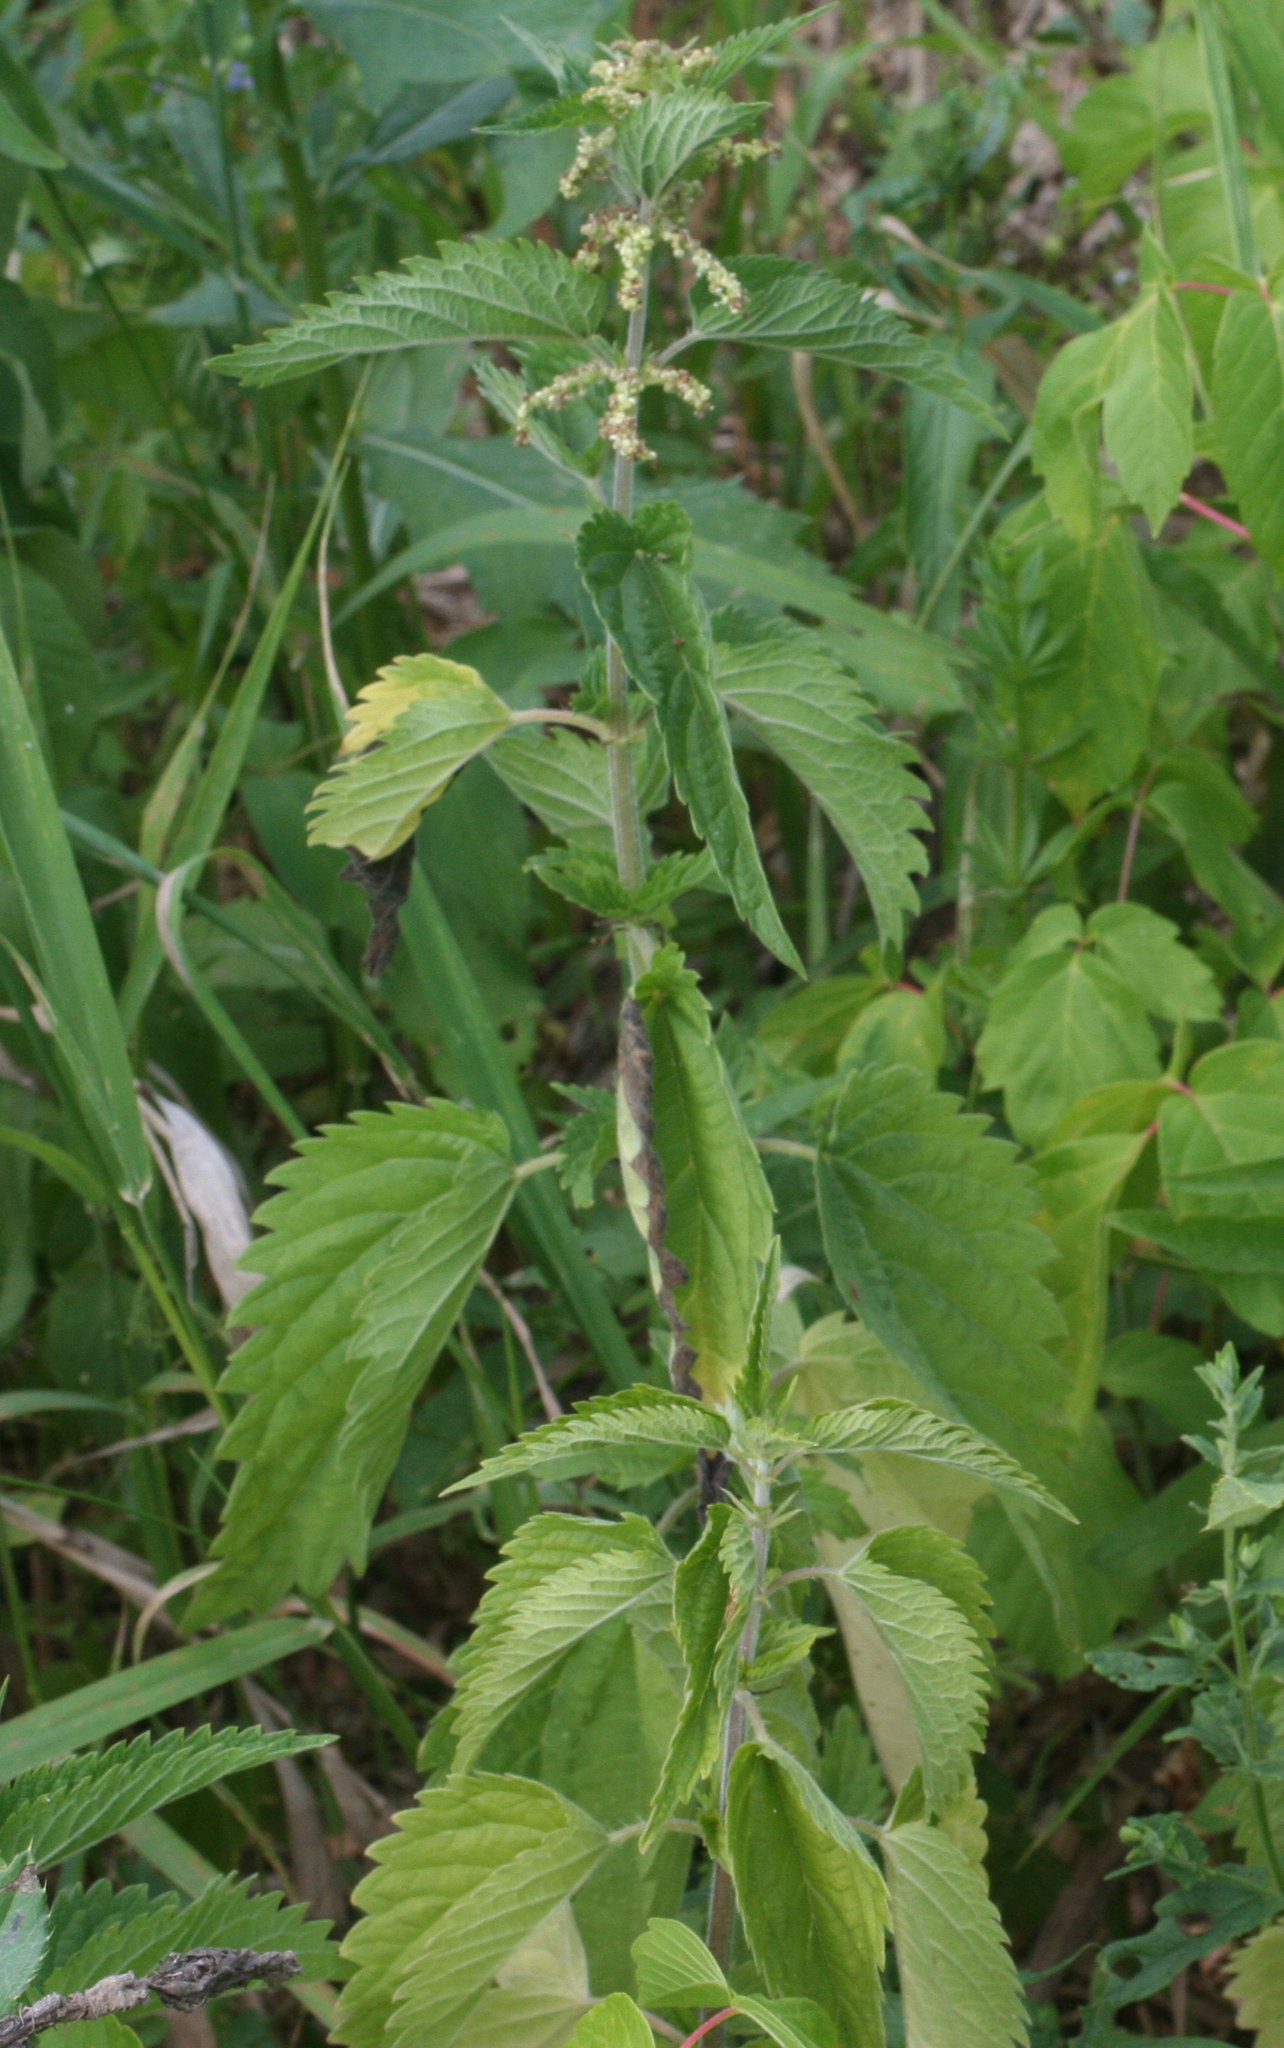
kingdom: Plantae
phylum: Tracheophyta
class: Magnoliopsida
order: Rosales
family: Urticaceae
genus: Urtica
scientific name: Urtica dioica
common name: Common nettle
